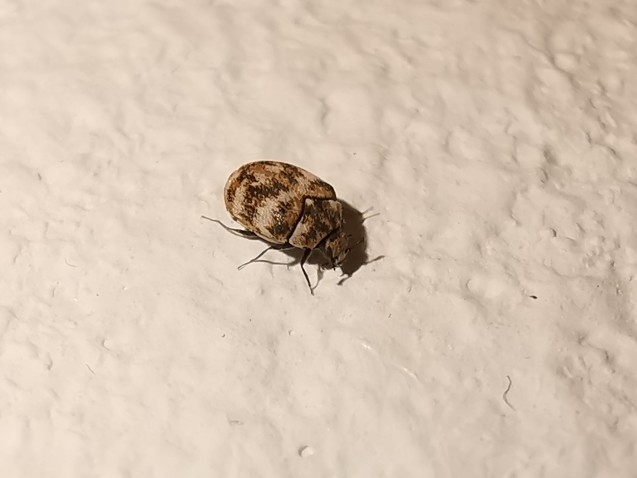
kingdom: Animalia
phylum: Arthropoda
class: Insecta
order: Coleoptera
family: Dermestidae
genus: Anthrenus
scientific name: Anthrenus verbasci
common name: Varied carpet beetle
